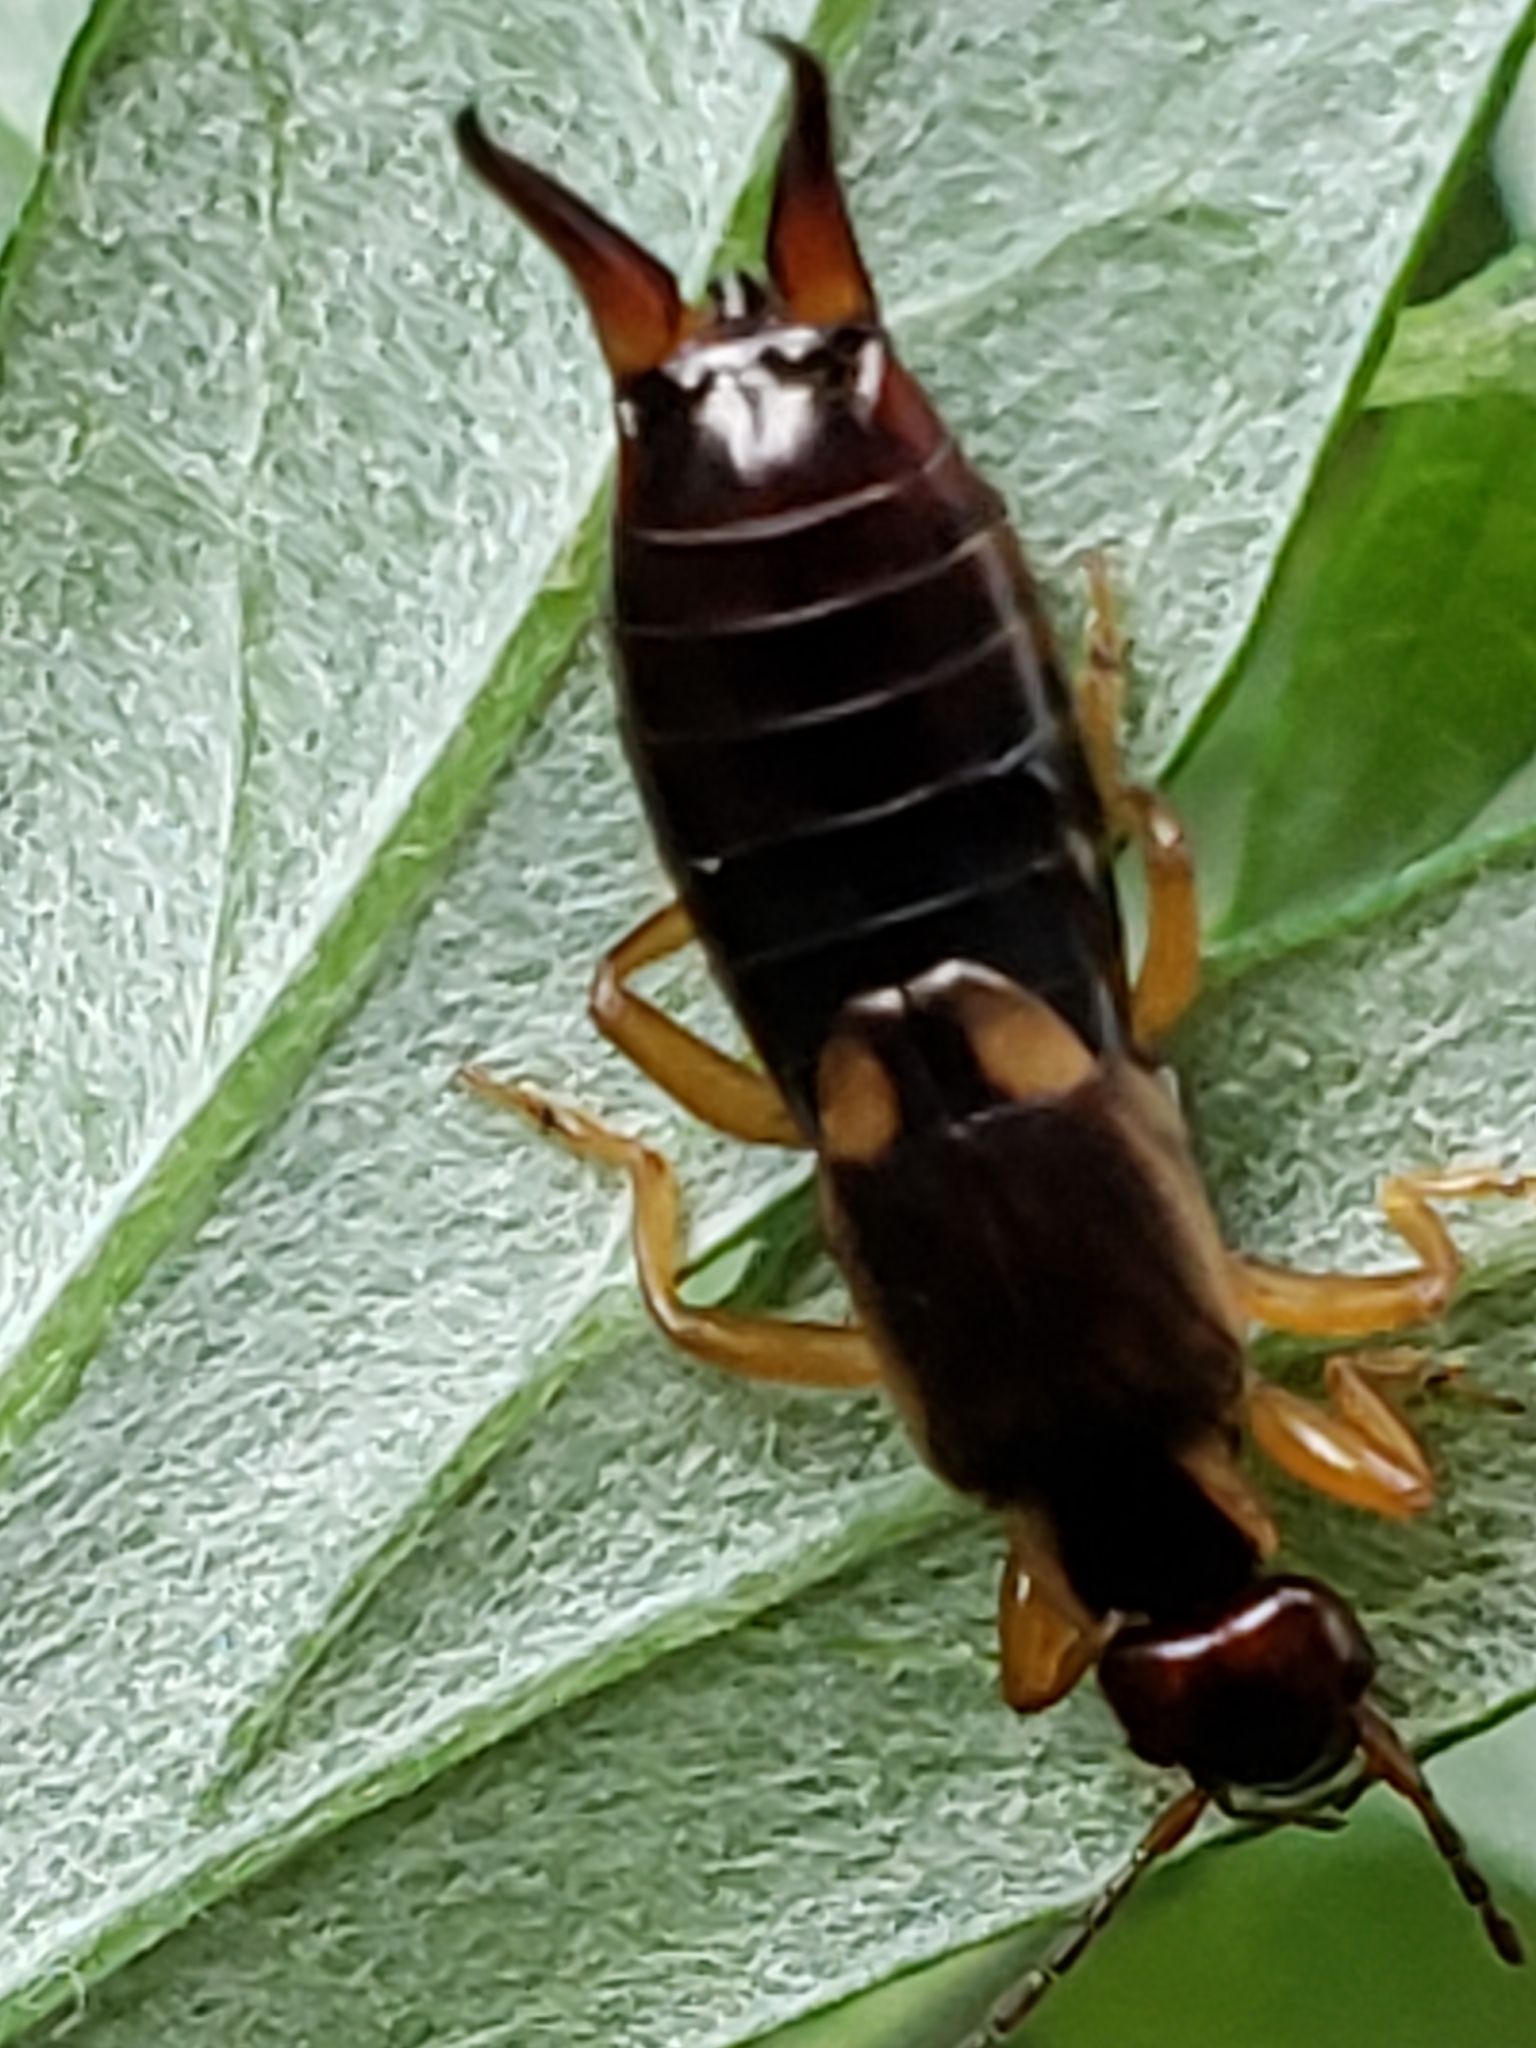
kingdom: Animalia
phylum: Arthropoda
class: Insecta
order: Dermaptera
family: Forficulidae
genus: Forficula
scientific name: Forficula
